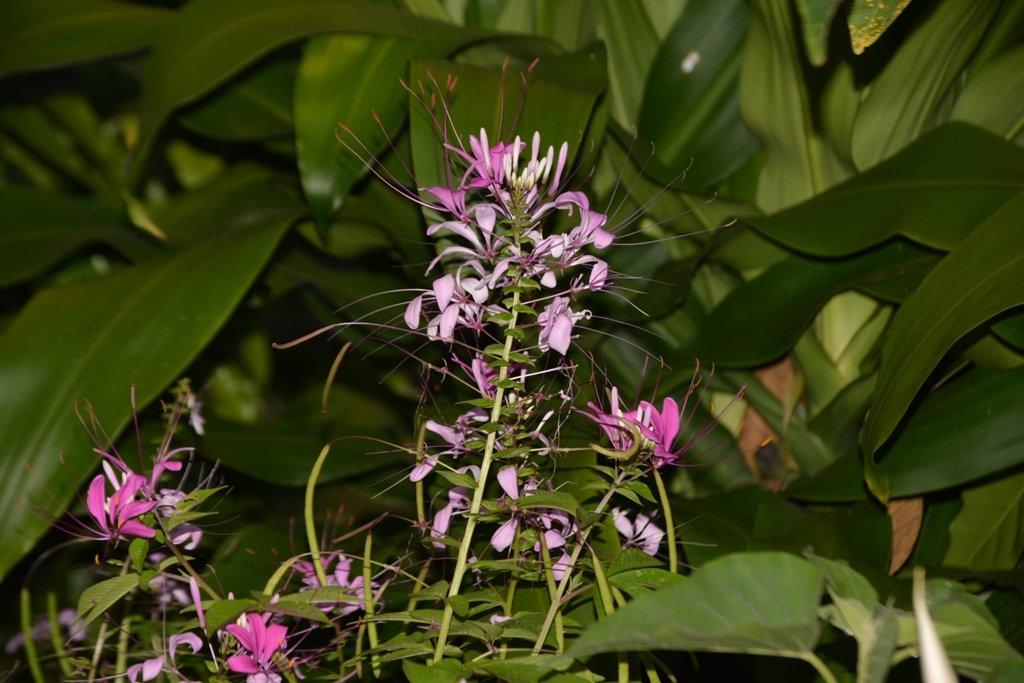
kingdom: Plantae
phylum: Tracheophyta
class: Magnoliopsida
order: Brassicales
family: Cleomaceae
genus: Tarenaya
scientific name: Tarenaya
